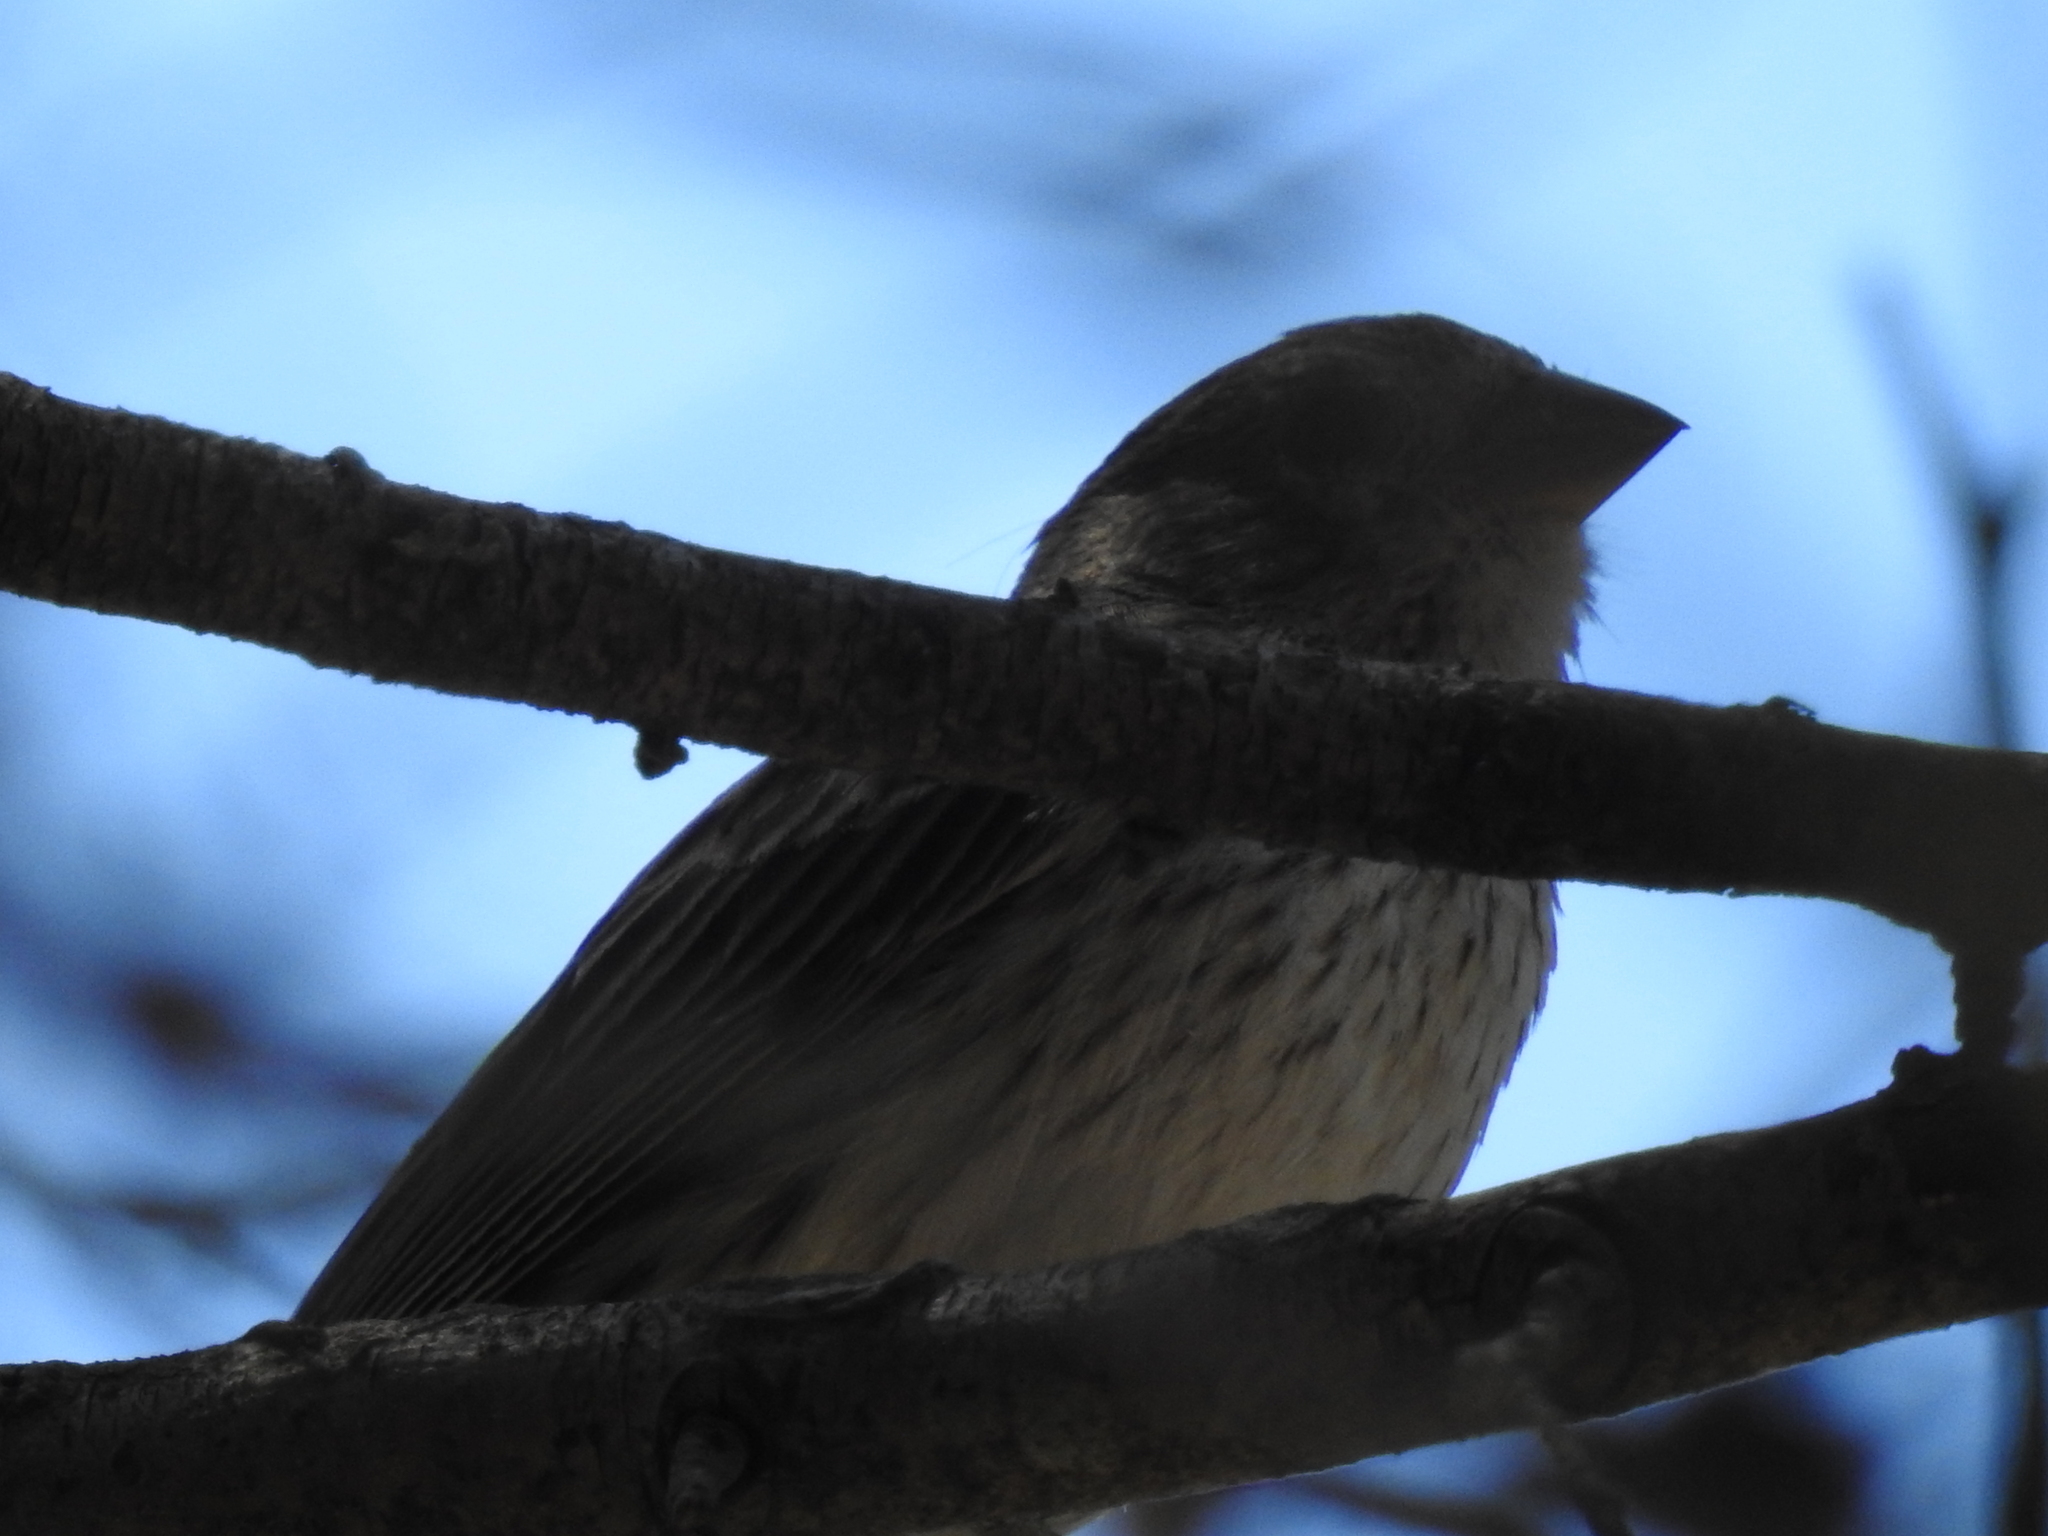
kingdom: Animalia
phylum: Chordata
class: Aves
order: Passeriformes
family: Thraupidae
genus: Sicalis
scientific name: Sicalis flaveola
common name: Saffron finch
